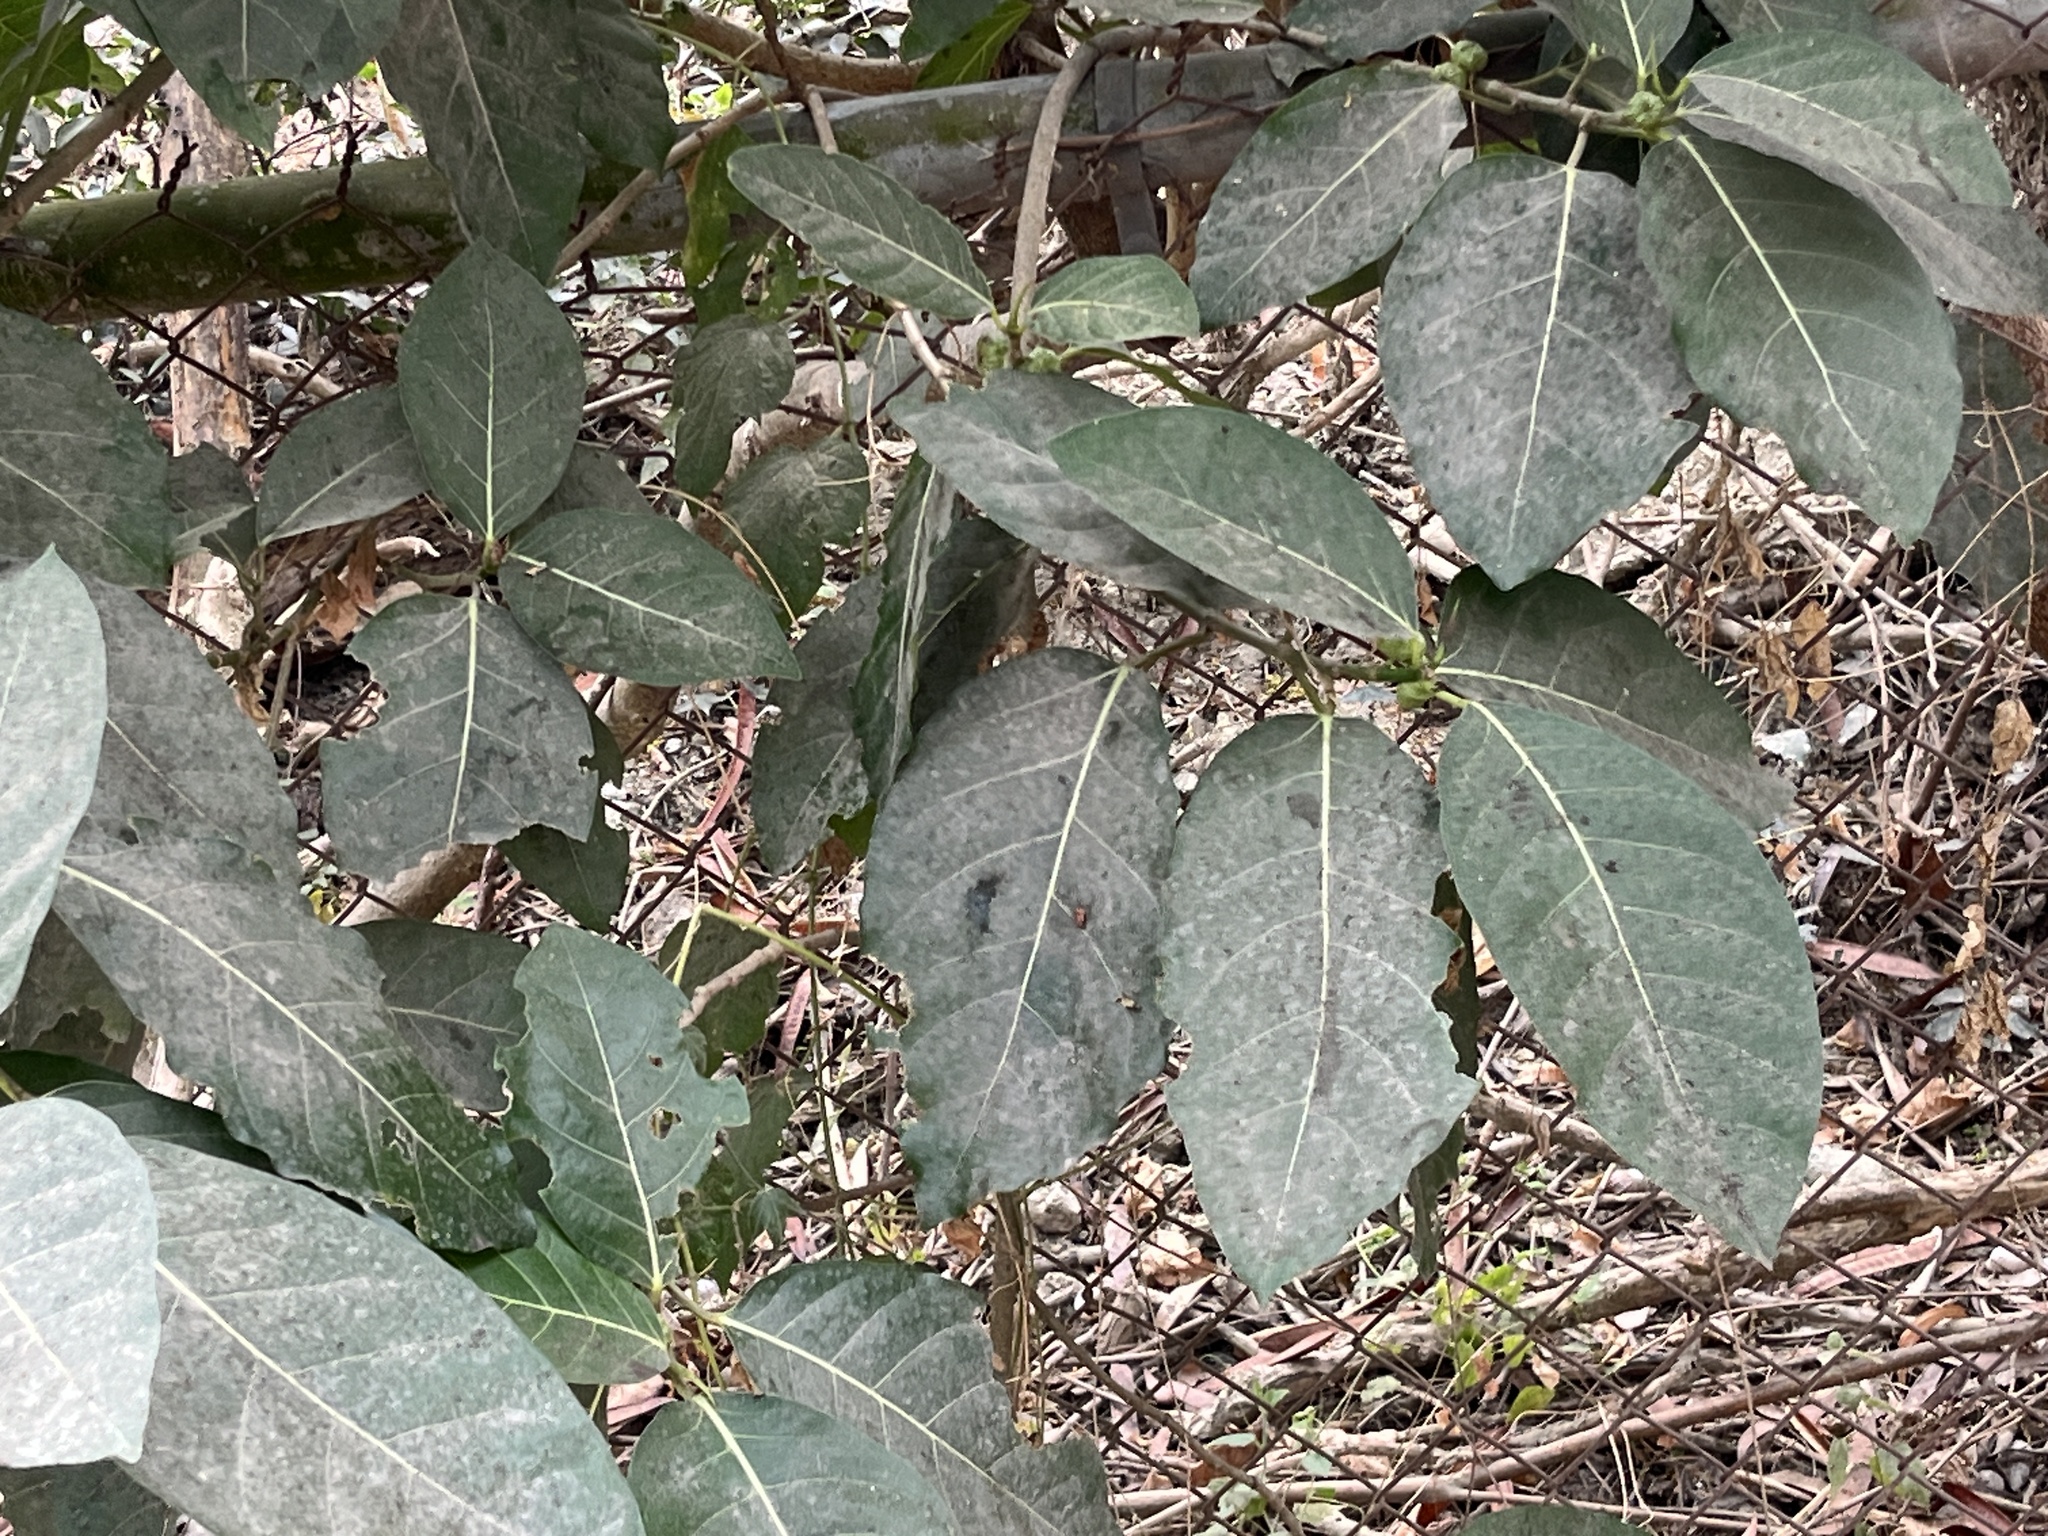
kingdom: Plantae
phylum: Tracheophyta
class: Magnoliopsida
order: Rosales
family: Moraceae
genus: Ficus
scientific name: Ficus septica
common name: Septic fig
